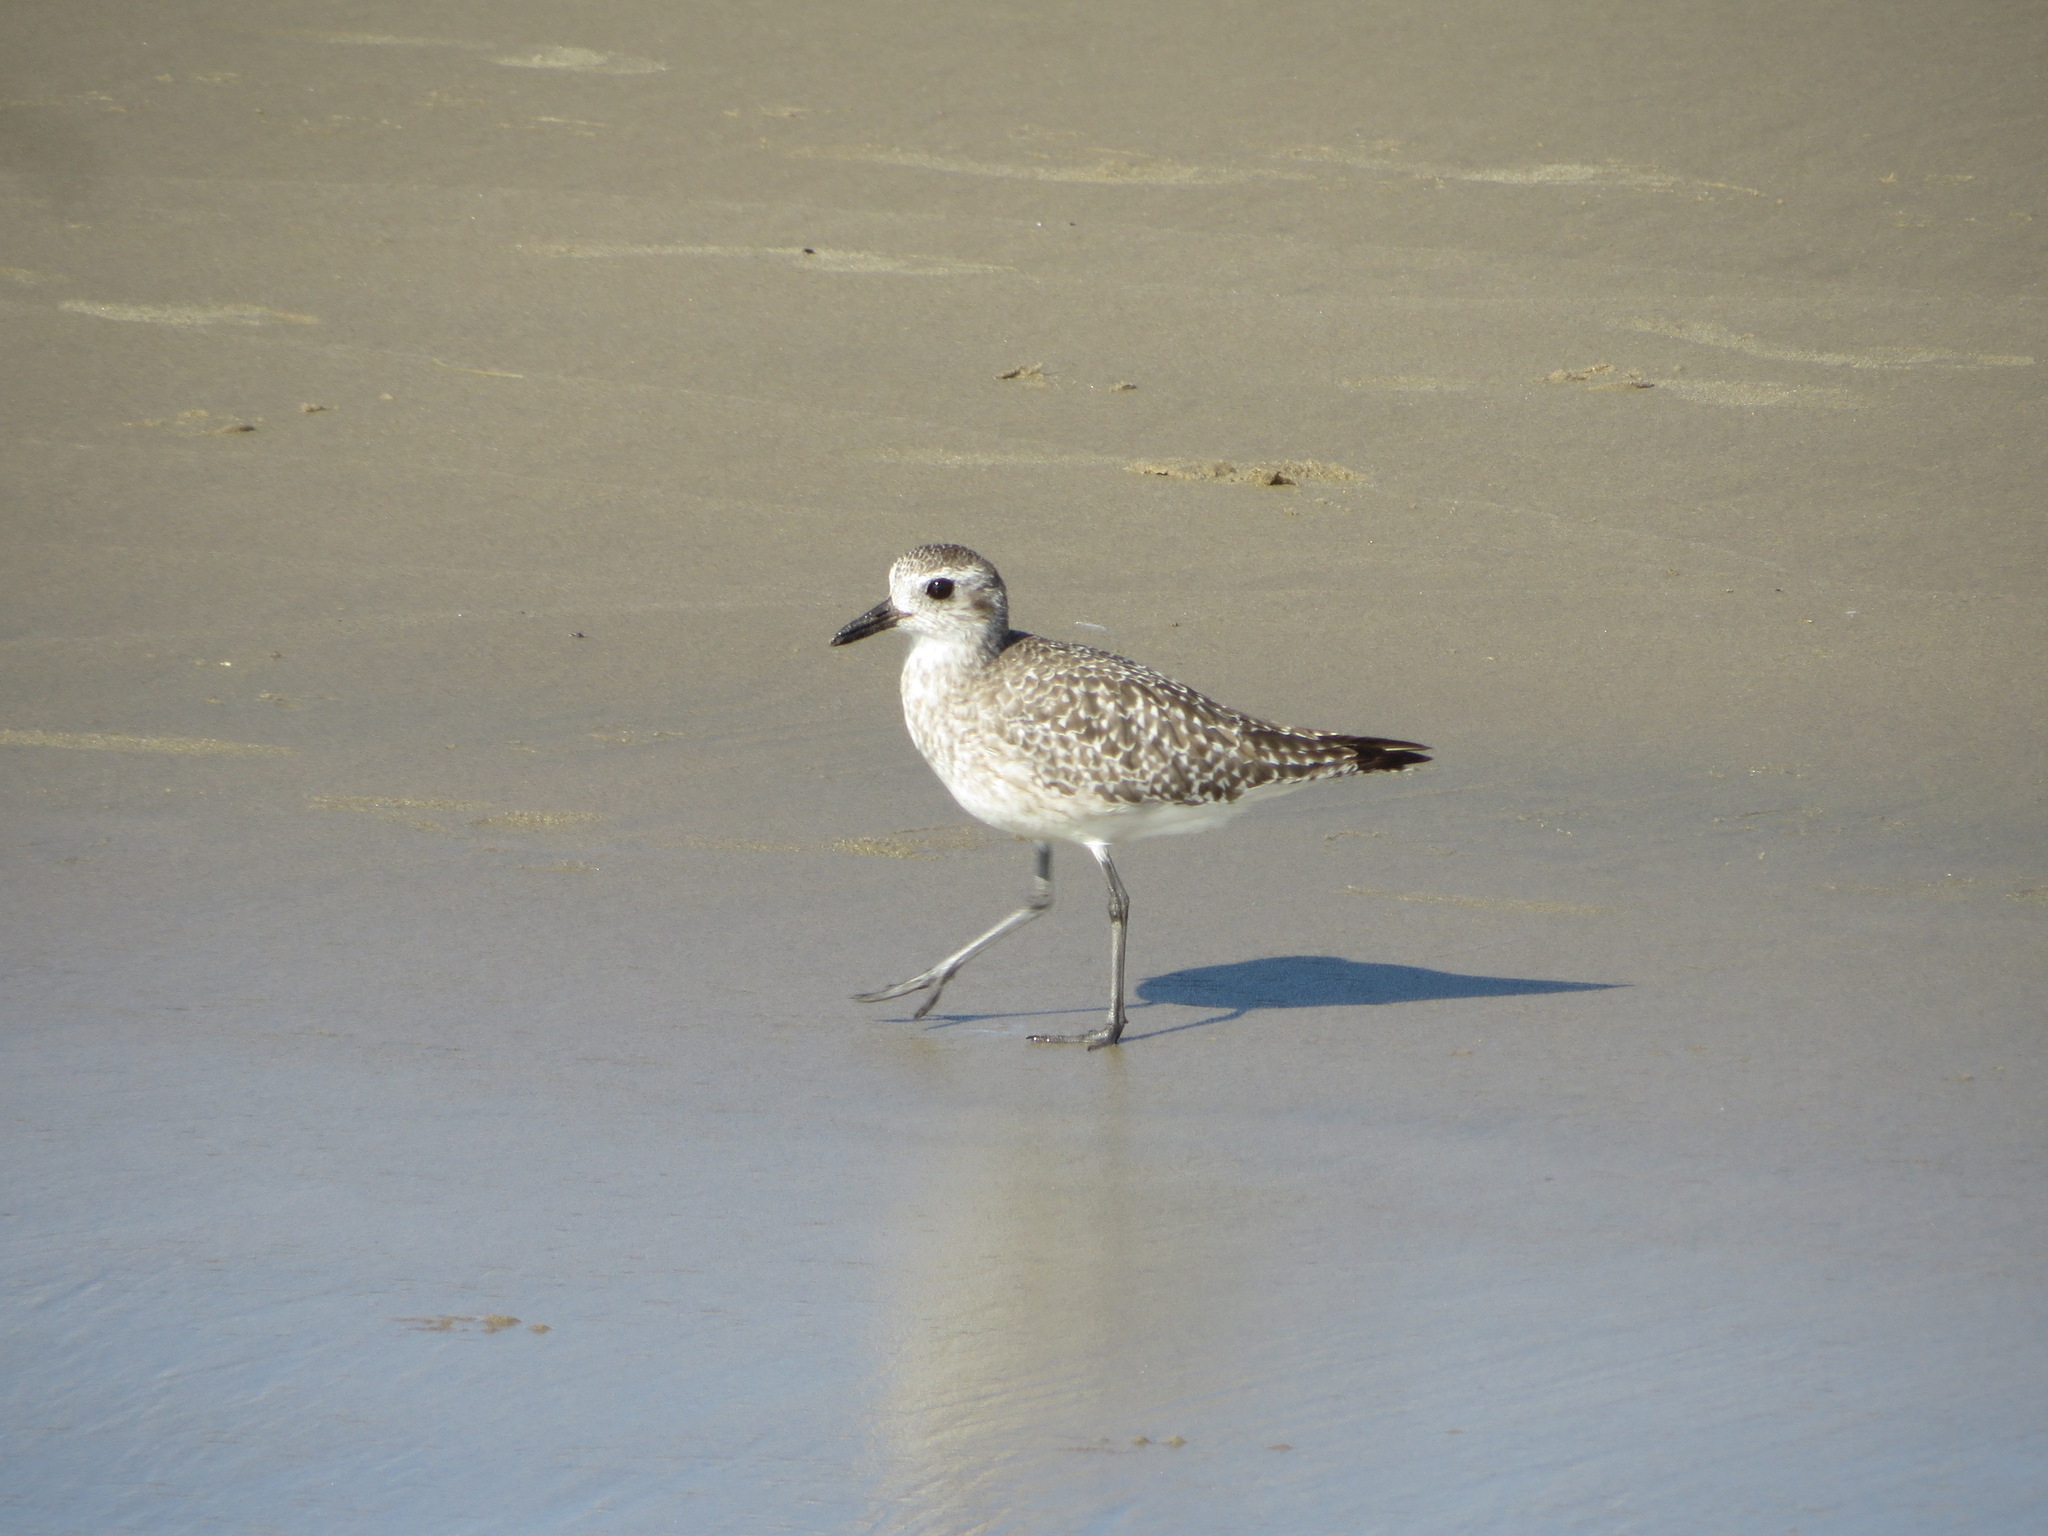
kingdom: Animalia
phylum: Chordata
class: Aves
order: Charadriiformes
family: Charadriidae
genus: Pluvialis
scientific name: Pluvialis squatarola
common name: Grey plover
